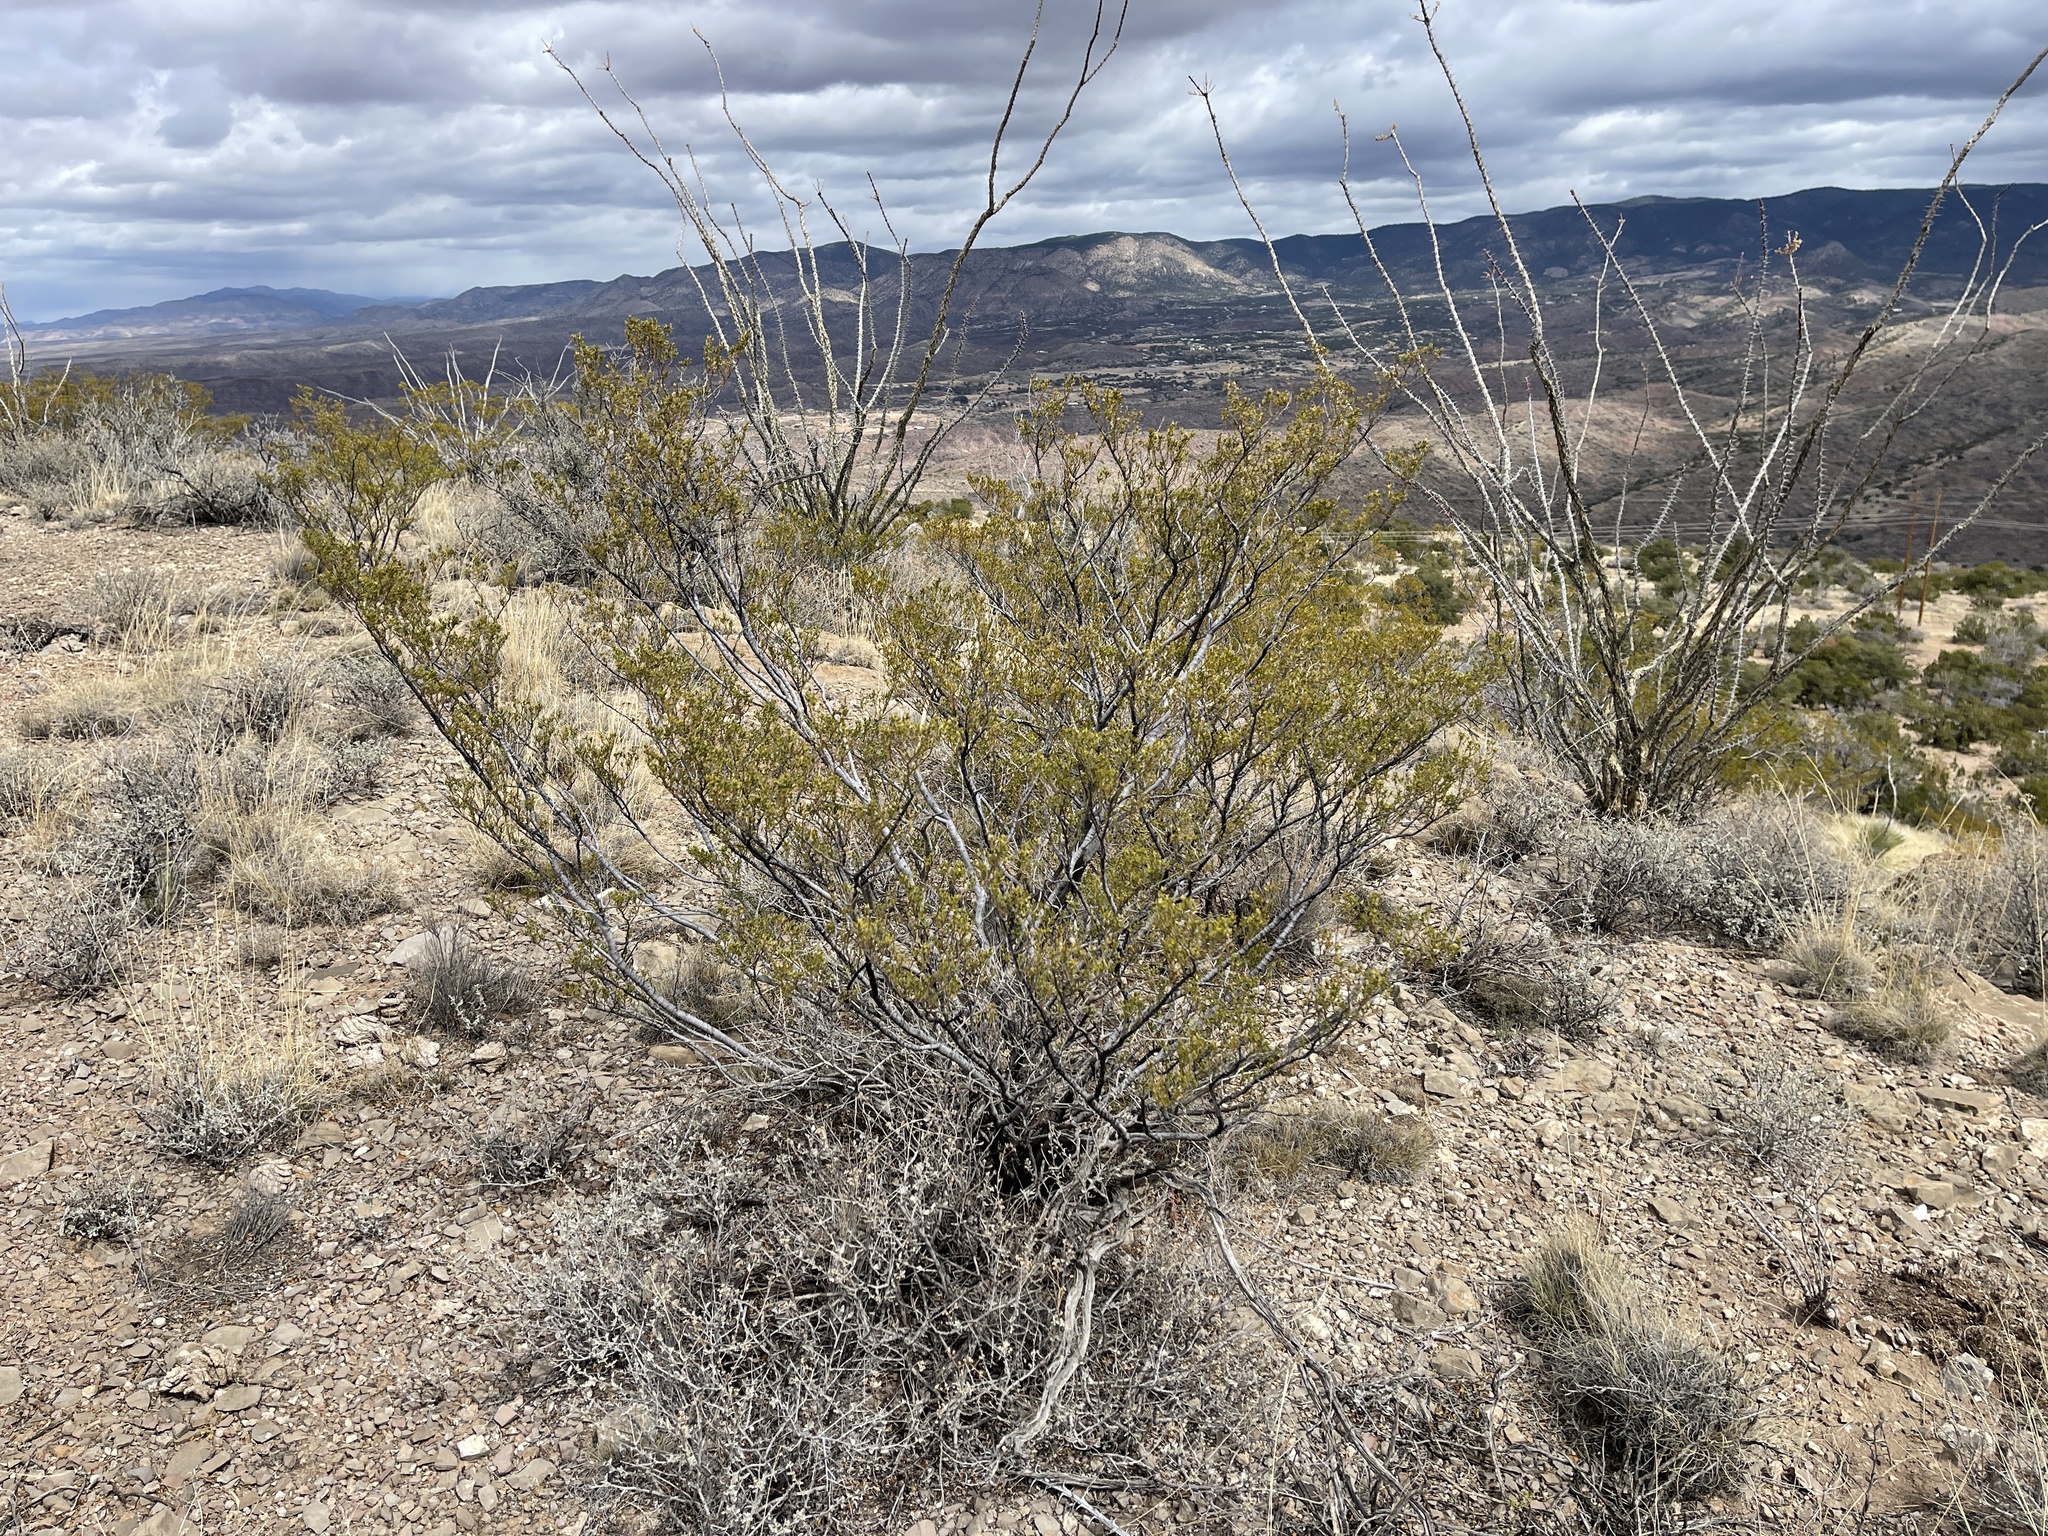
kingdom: Plantae
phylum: Tracheophyta
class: Magnoliopsida
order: Zygophyllales
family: Zygophyllaceae
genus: Larrea
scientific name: Larrea tridentata
